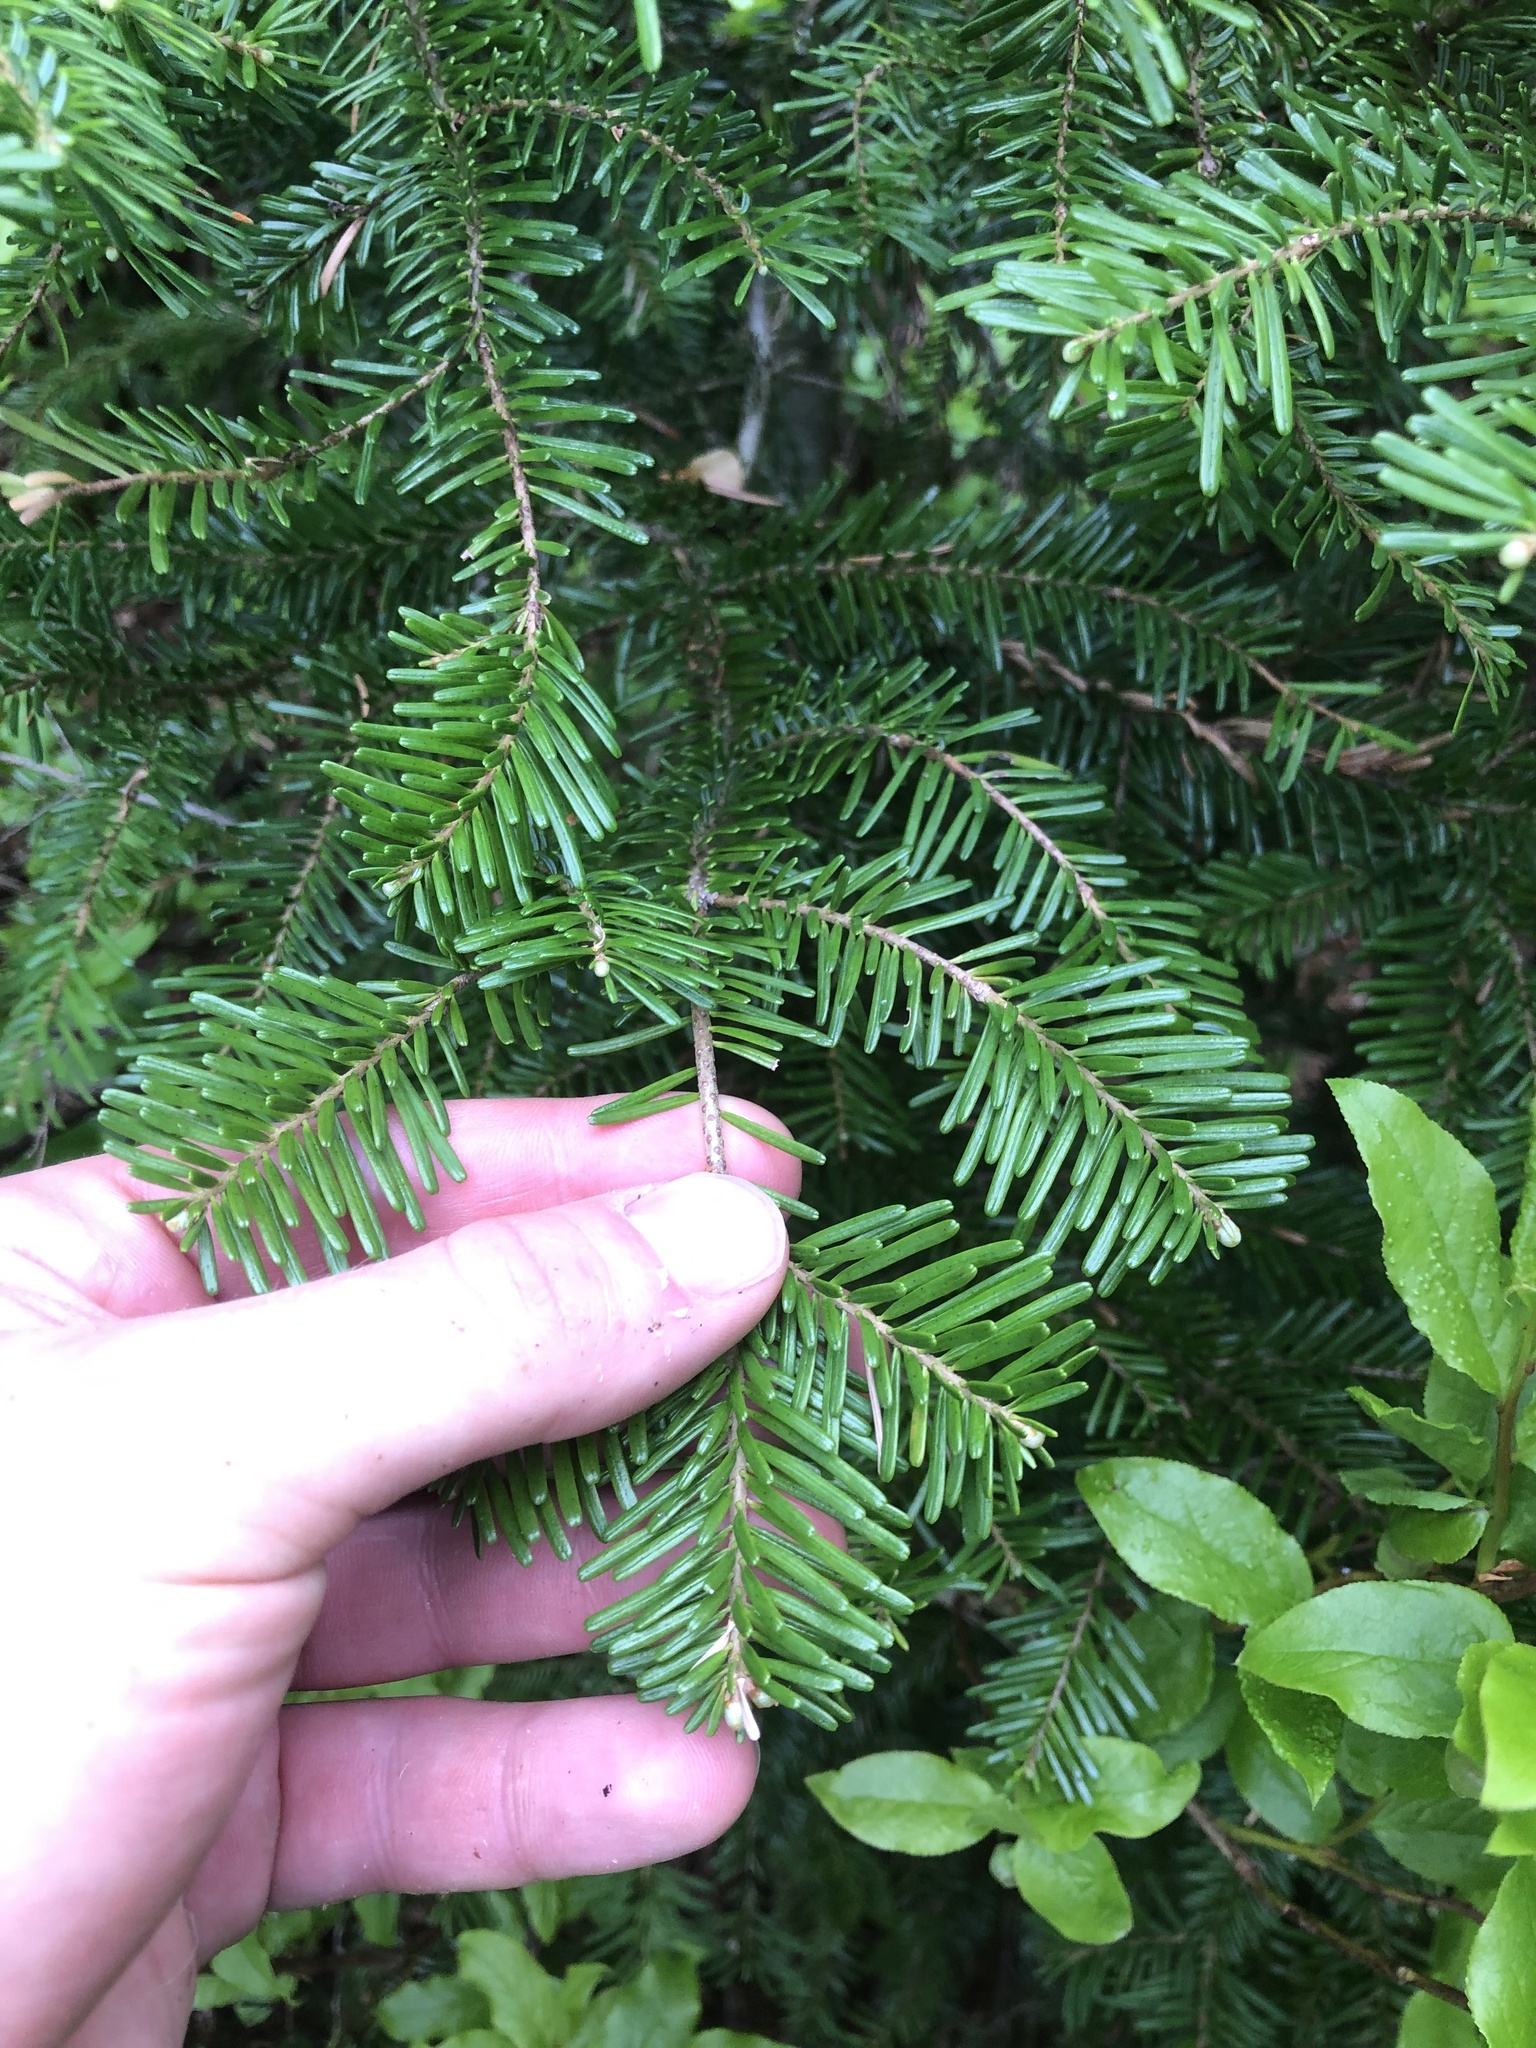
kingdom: Plantae
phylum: Tracheophyta
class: Pinopsida
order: Pinales
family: Pinaceae
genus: Abies
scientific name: Abies amabilis
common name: Pacific silver fir
